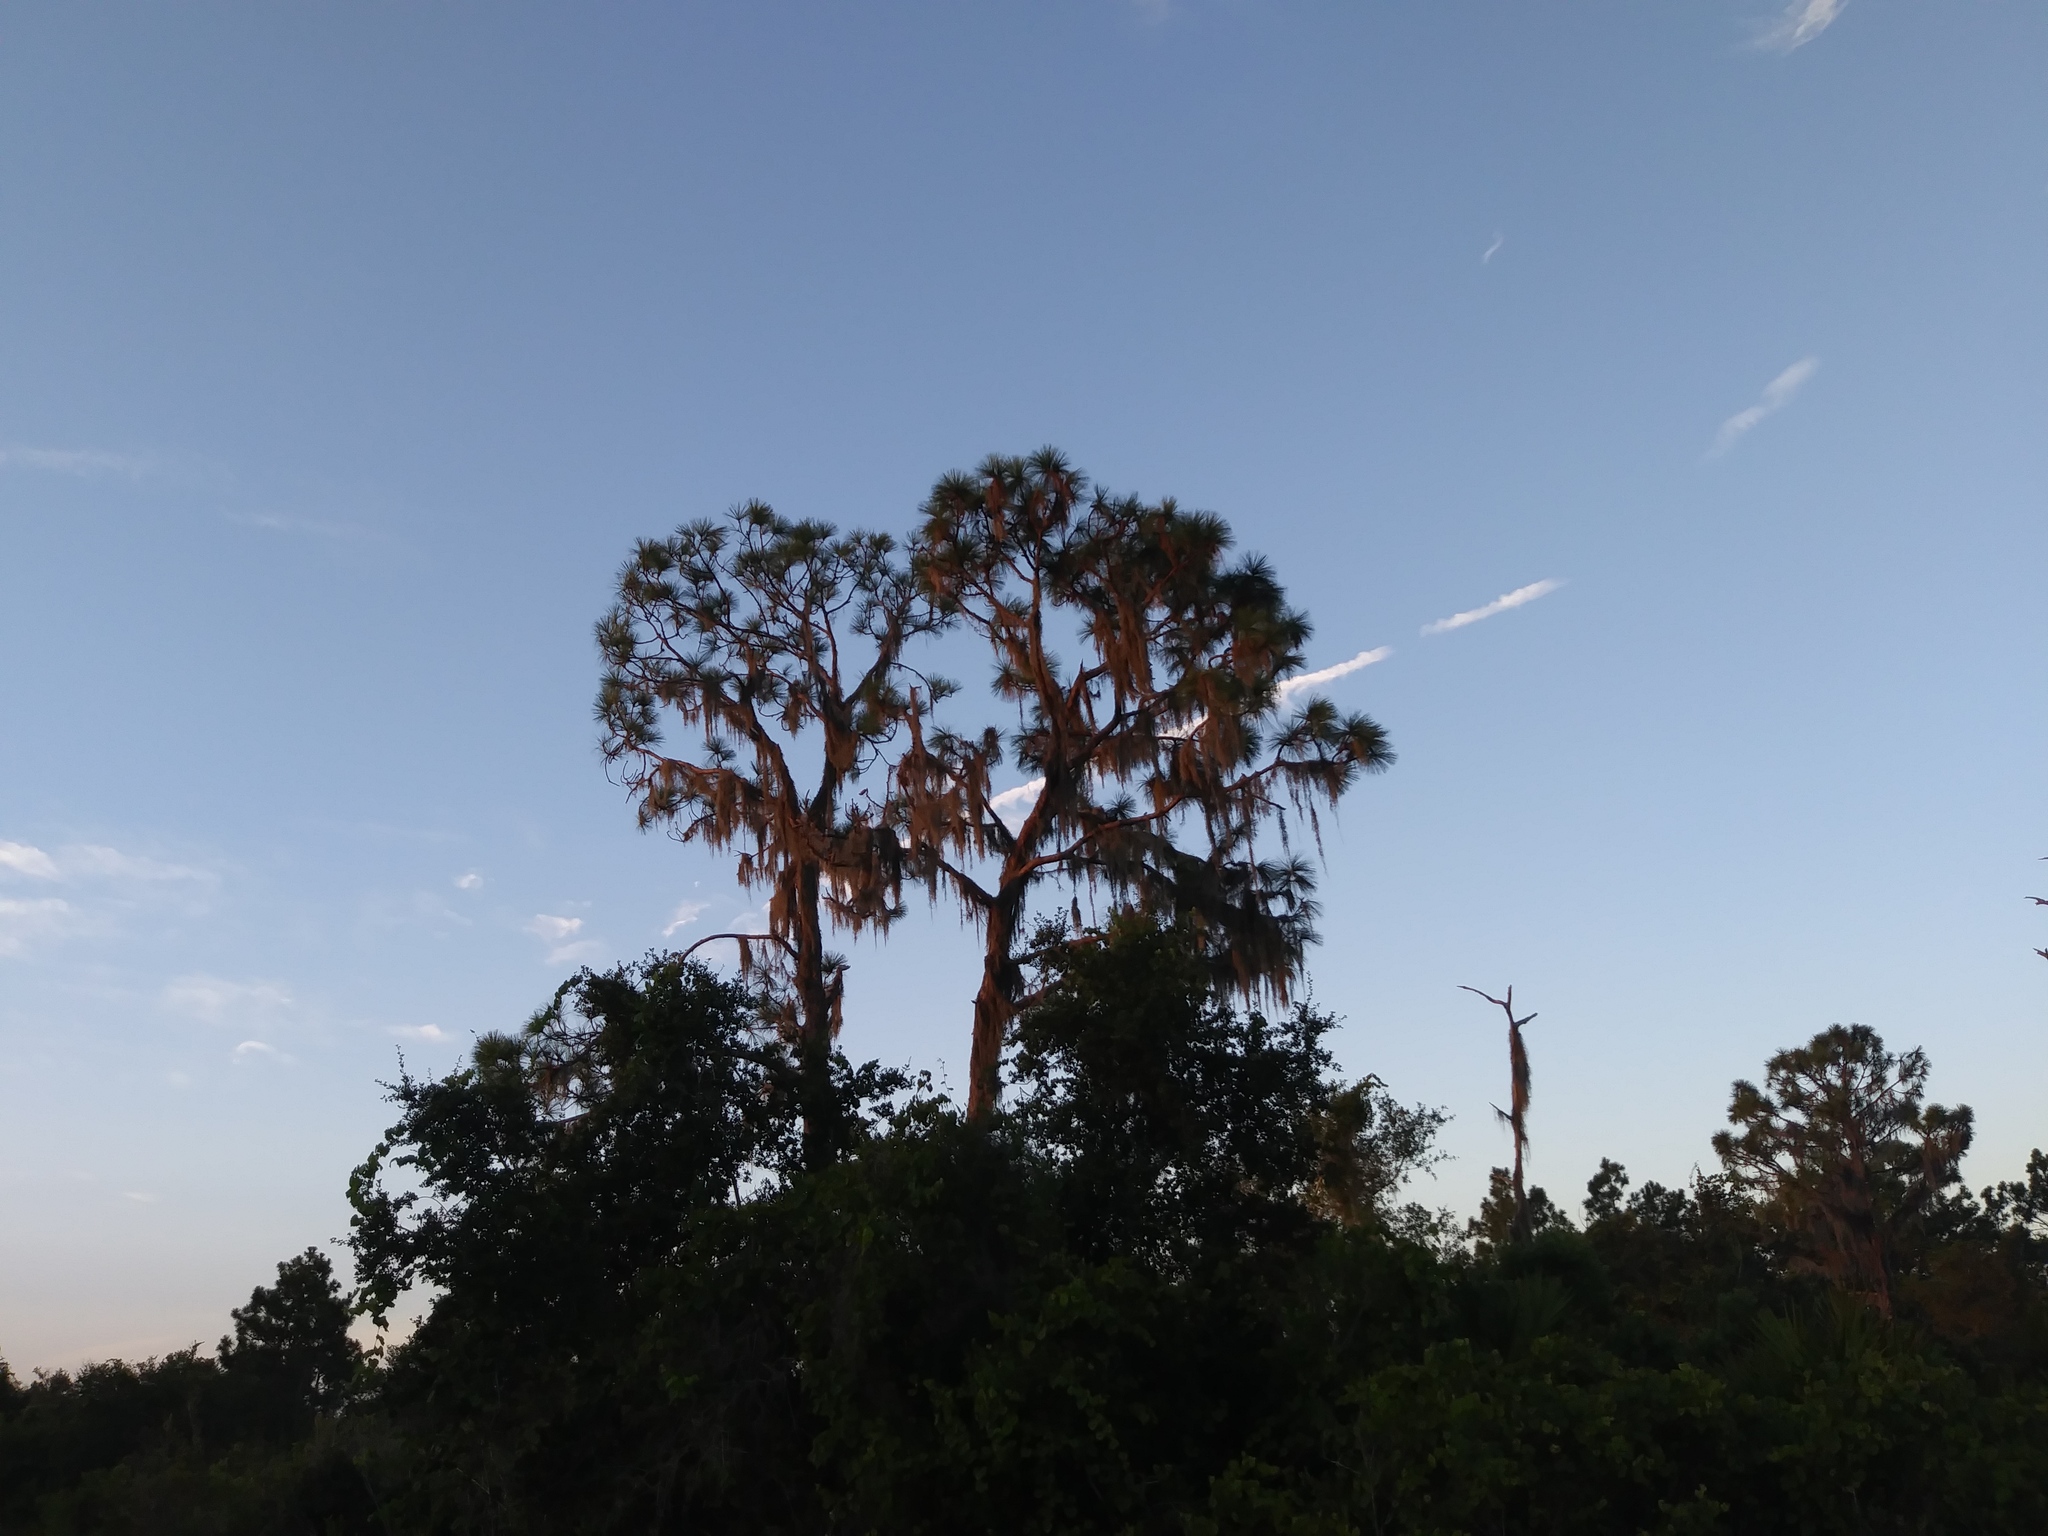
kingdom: Plantae
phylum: Tracheophyta
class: Liliopsida
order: Poales
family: Bromeliaceae
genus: Tillandsia
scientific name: Tillandsia usneoides
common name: Spanish moss
